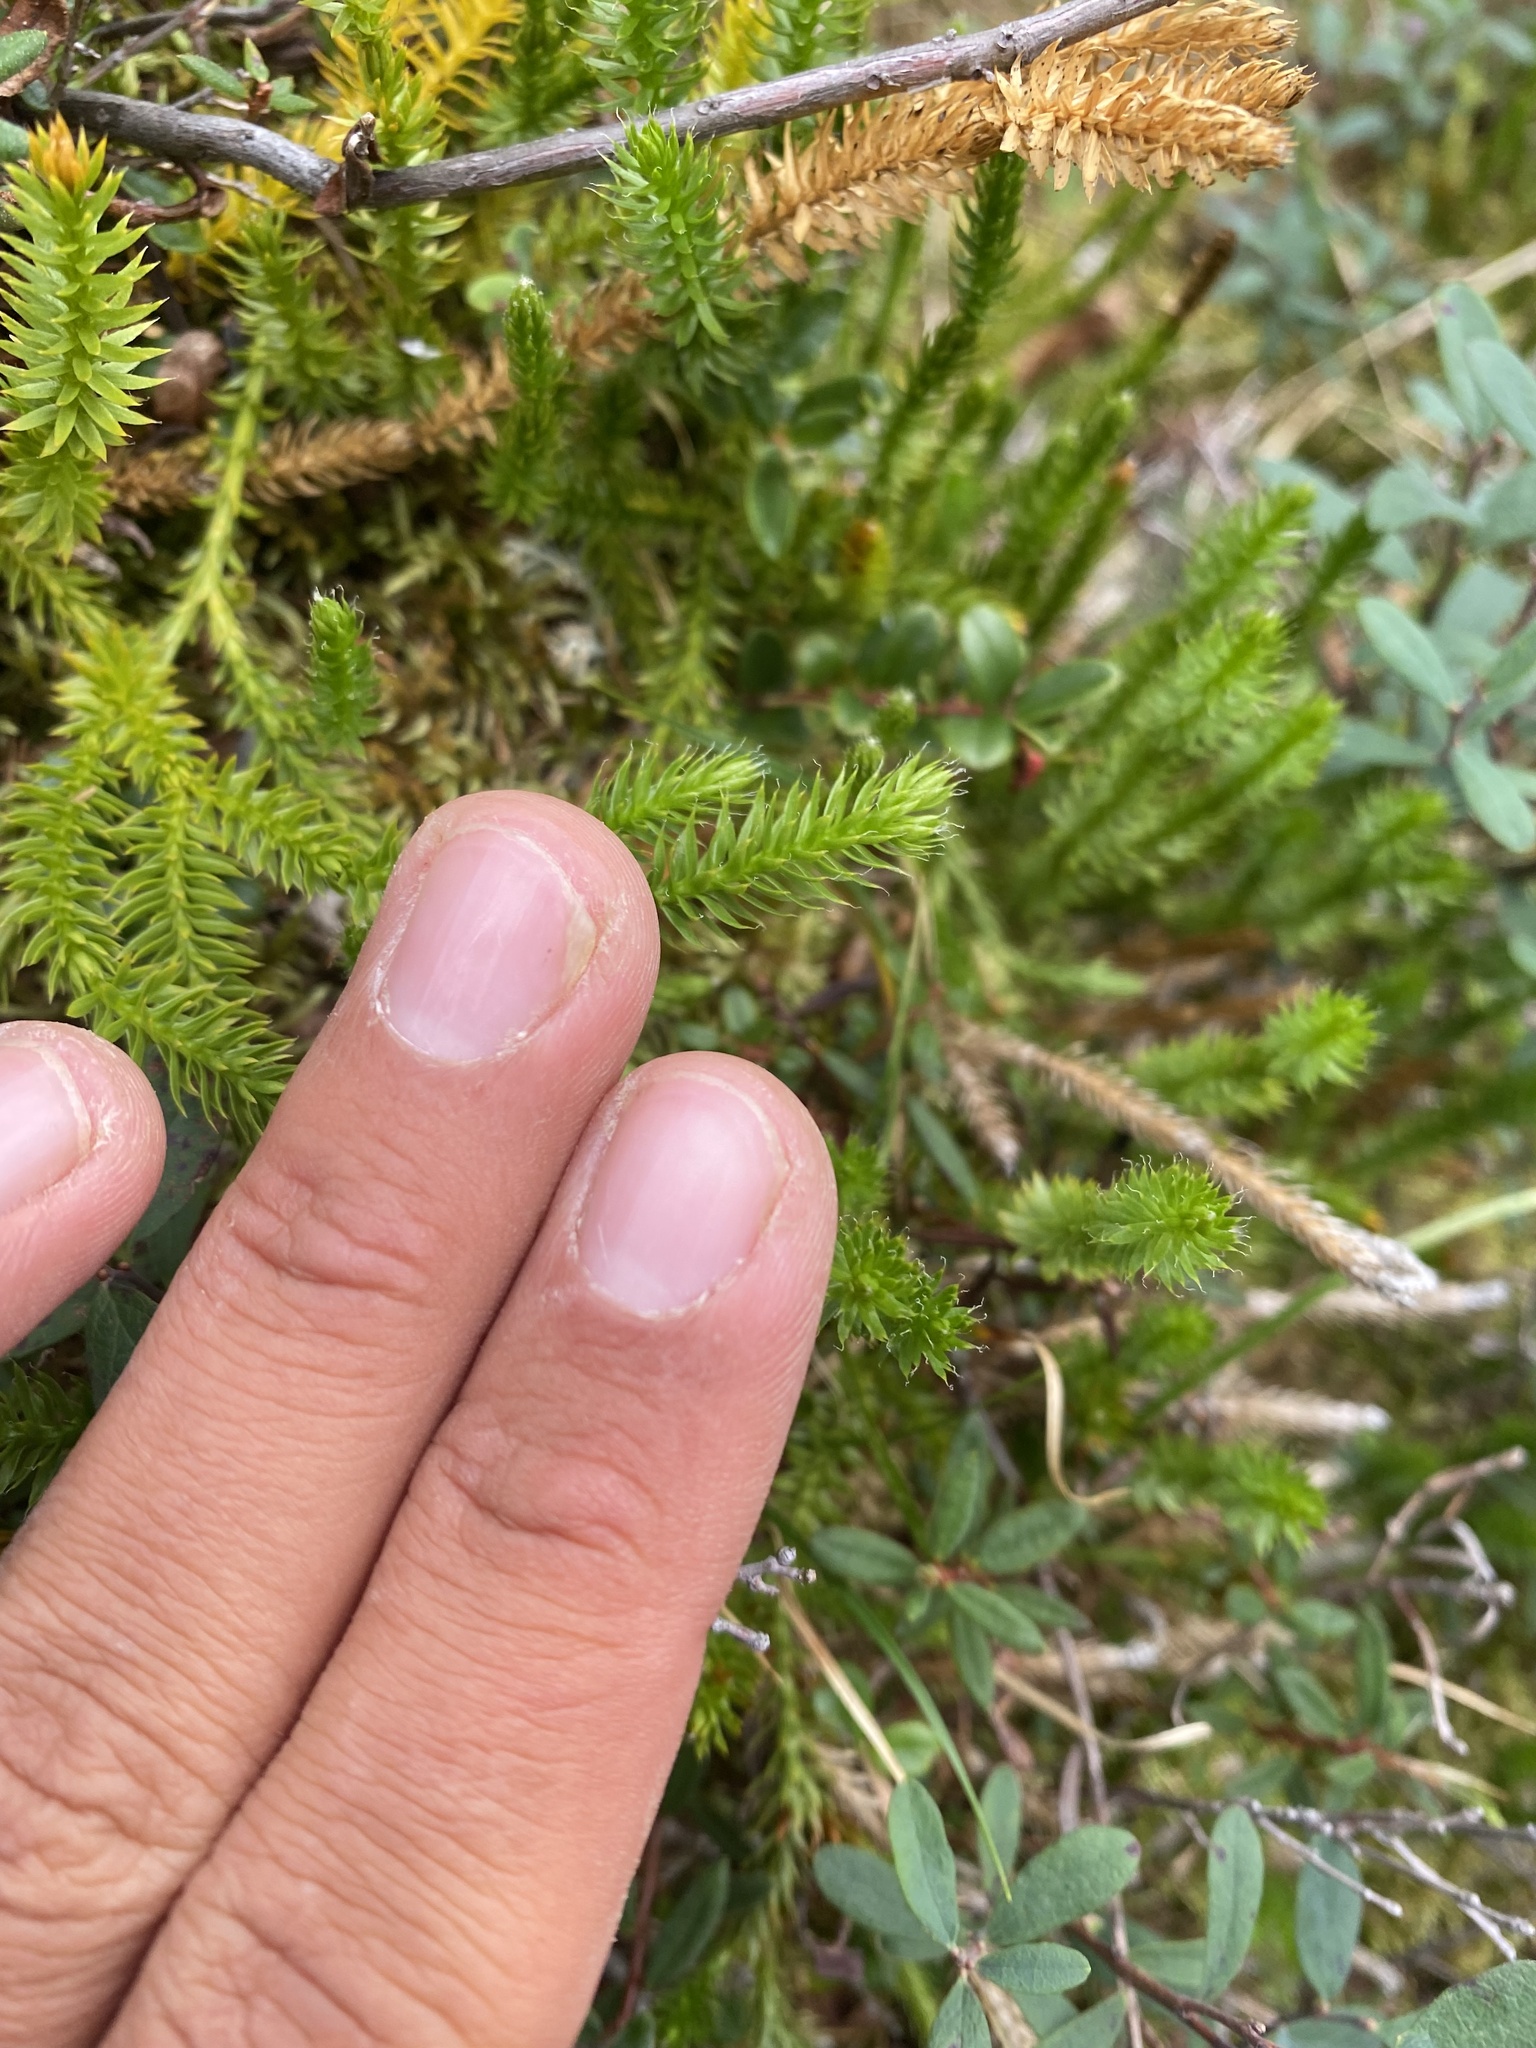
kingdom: Plantae
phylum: Tracheophyta
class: Lycopodiopsida
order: Lycopodiales
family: Lycopodiaceae
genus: Spinulum
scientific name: Spinulum annotinum
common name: Interrupted club-moss
